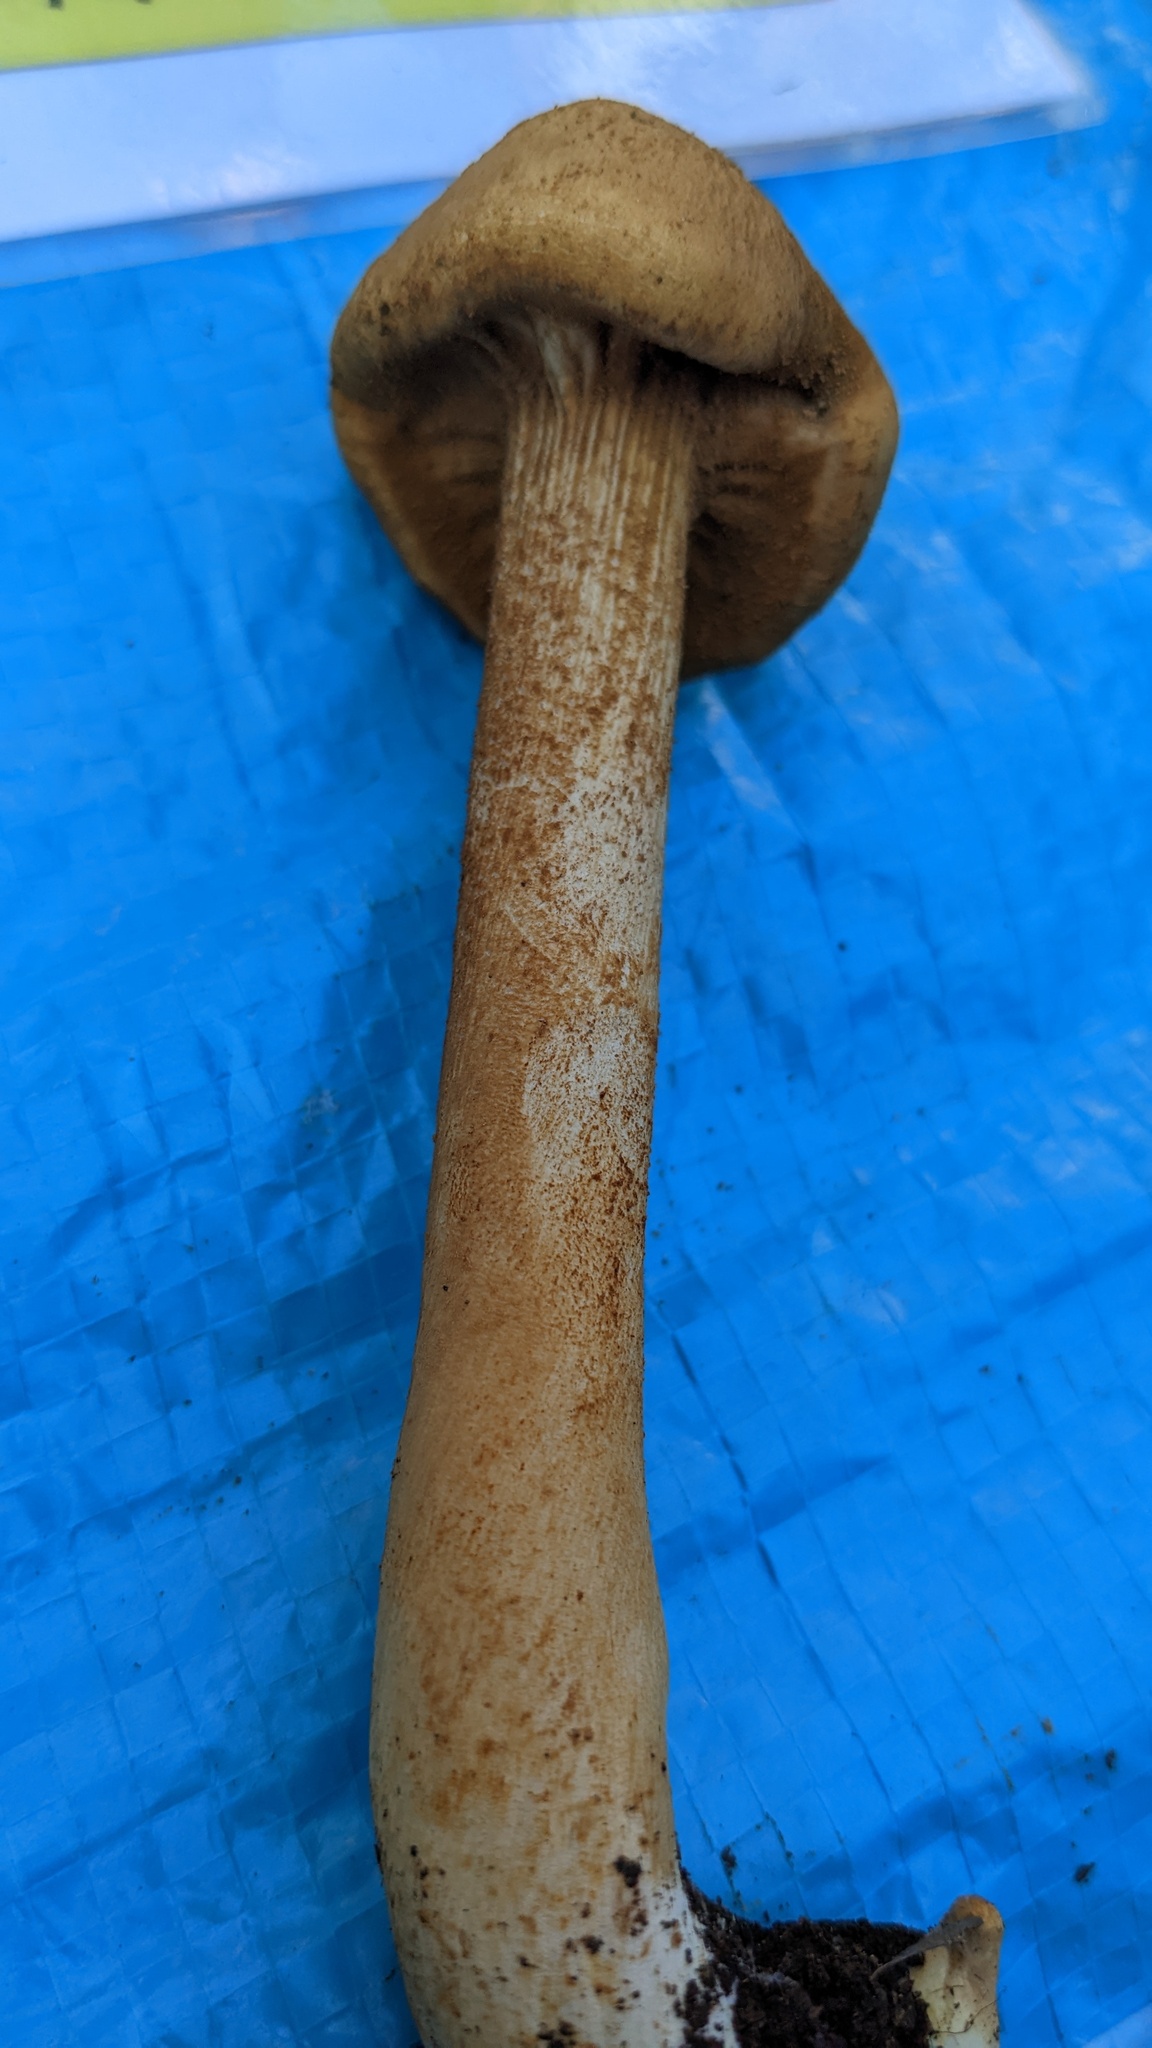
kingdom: Fungi
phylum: Basidiomycota
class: Agaricomycetes
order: Agaricales
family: Tricholomataceae
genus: Phaeolepiota
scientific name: Phaeolepiota aurea
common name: Golden bootleg
